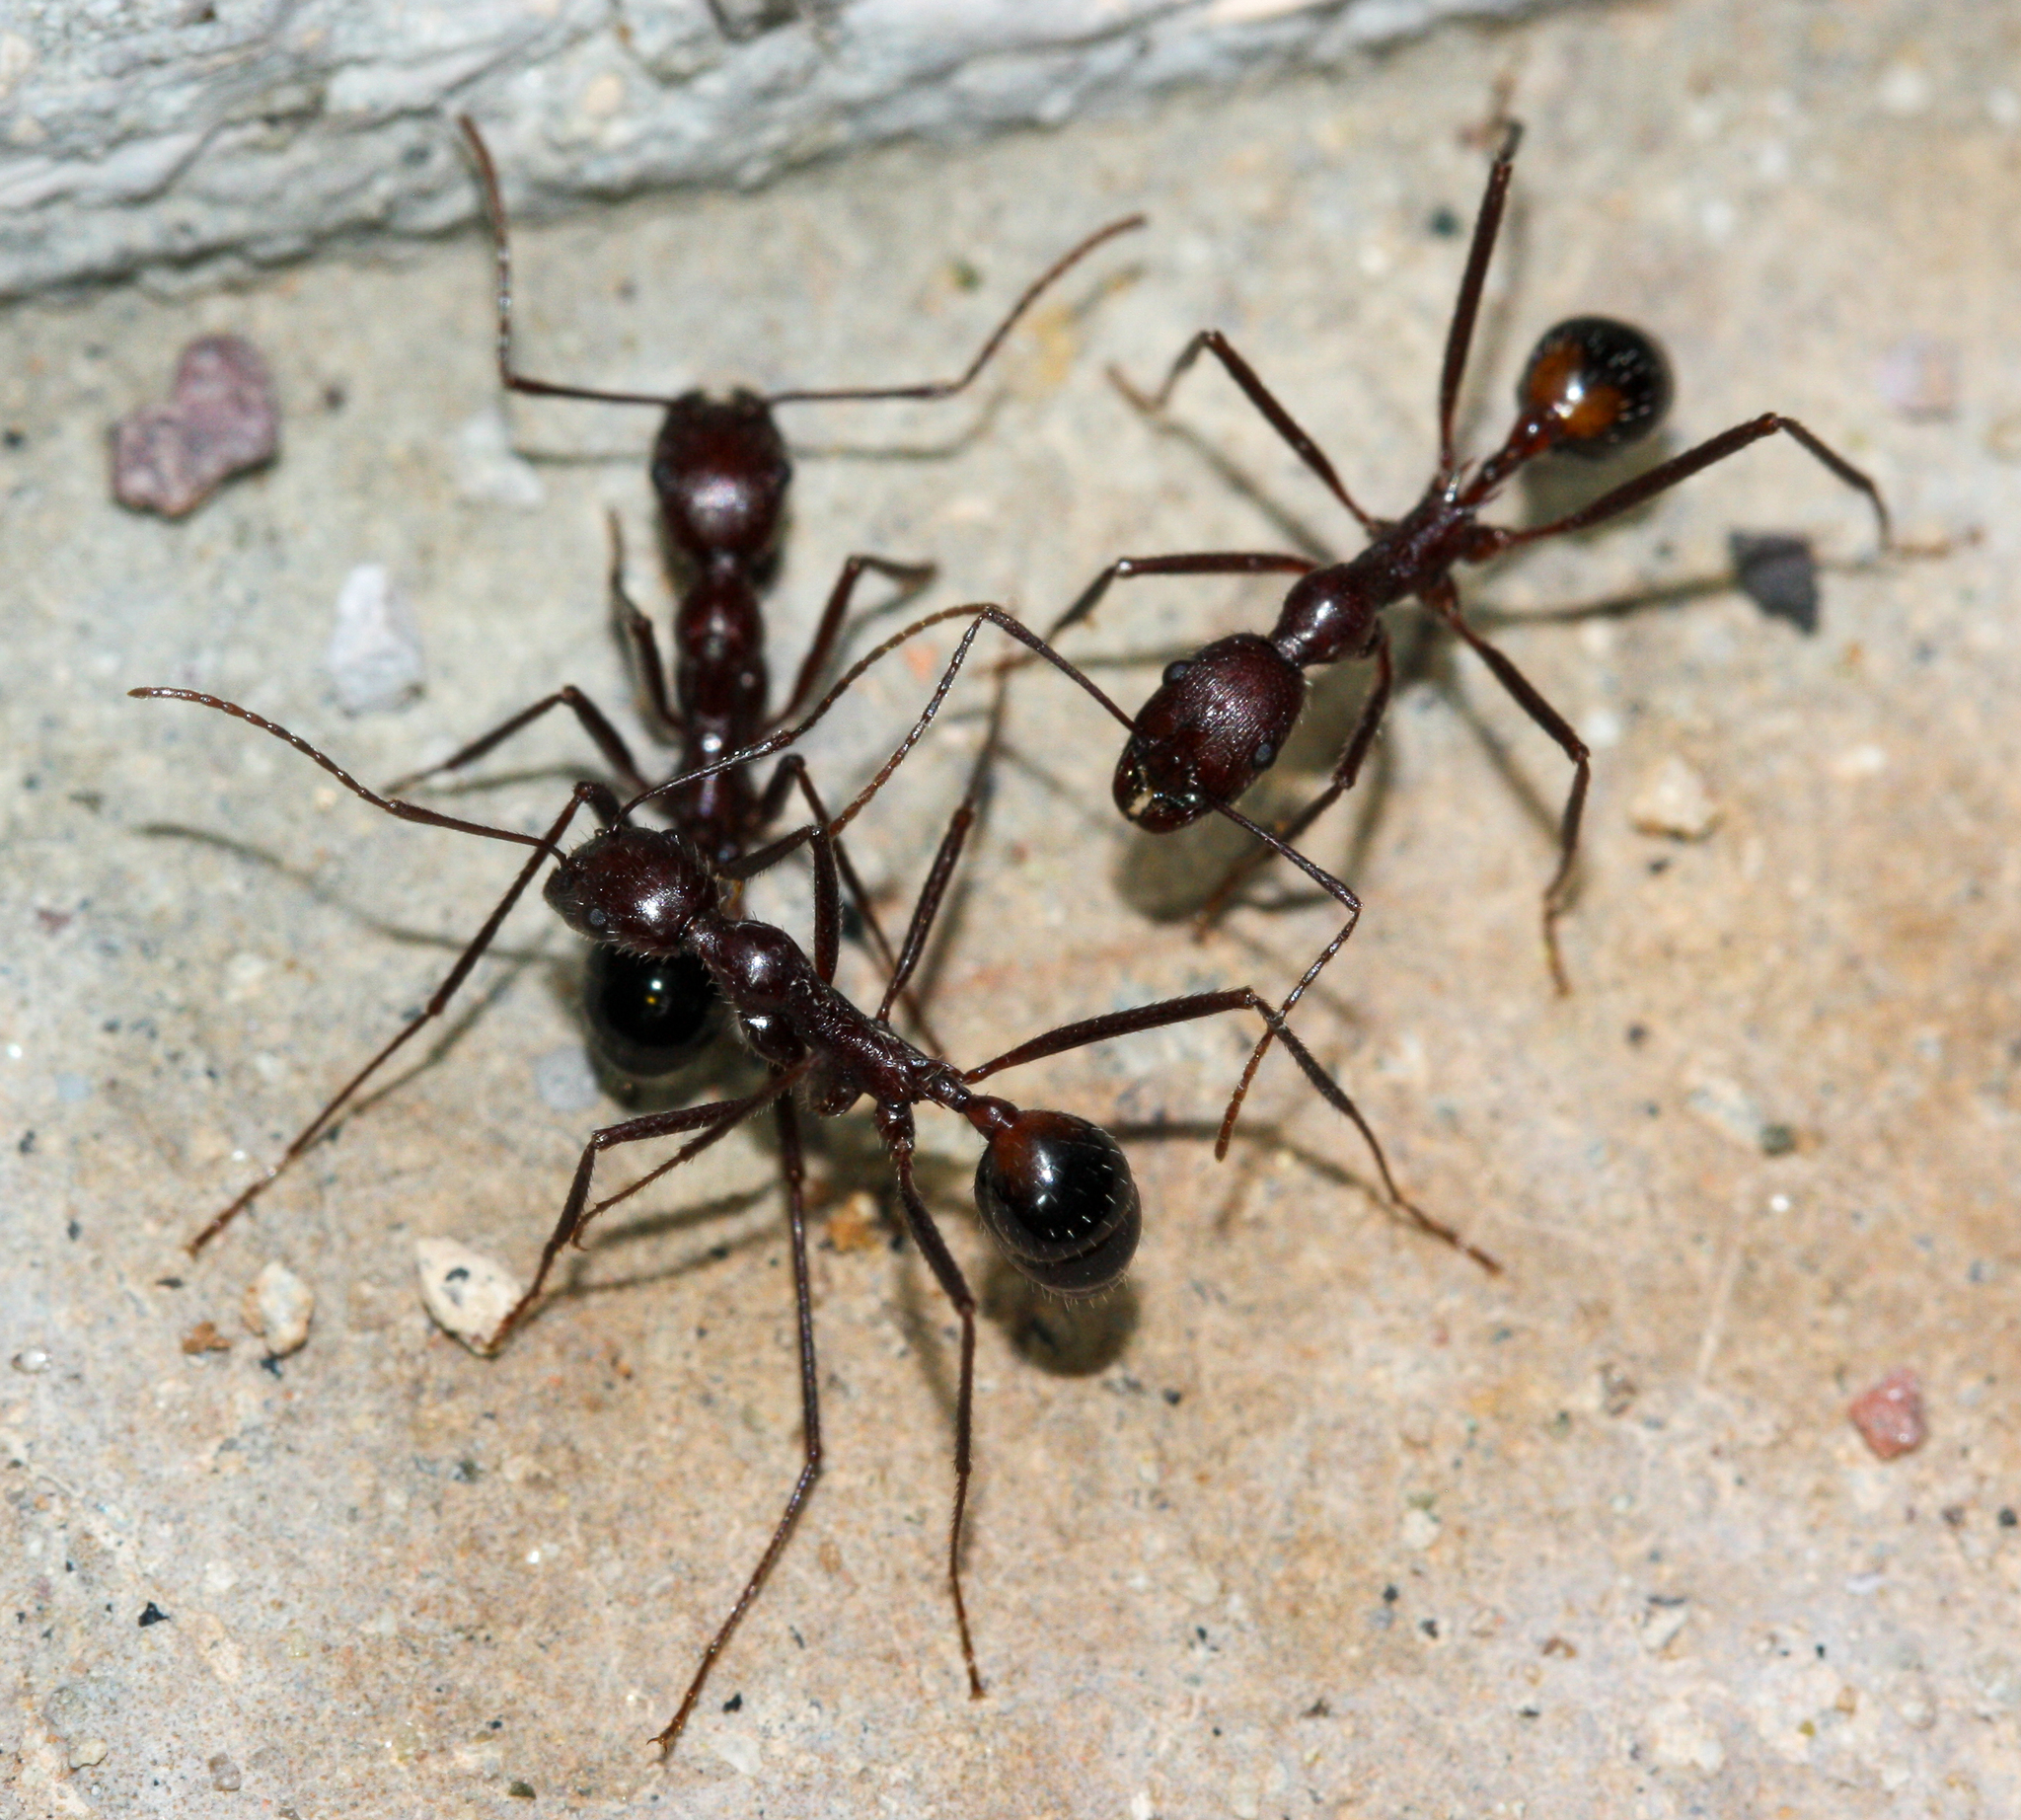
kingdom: Animalia
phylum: Arthropoda
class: Insecta
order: Hymenoptera
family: Formicidae
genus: Novomessor
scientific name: Novomessor cockerelli
